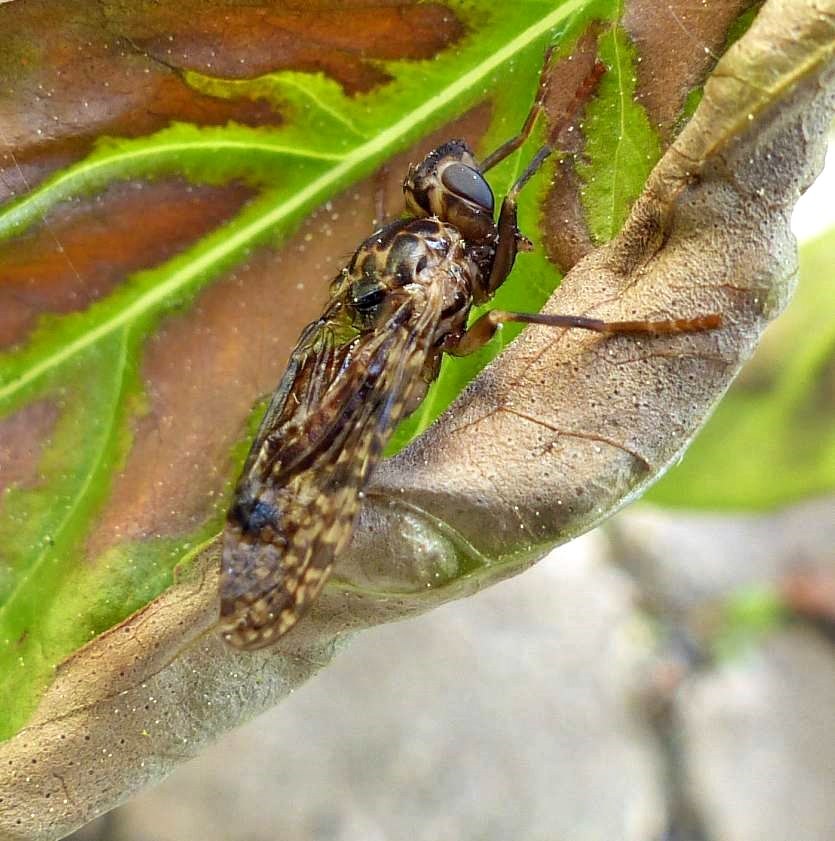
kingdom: Animalia
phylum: Arthropoda
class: Insecta
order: Diptera
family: Pyrgotidae
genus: Pyrgota
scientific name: Pyrgota valida
